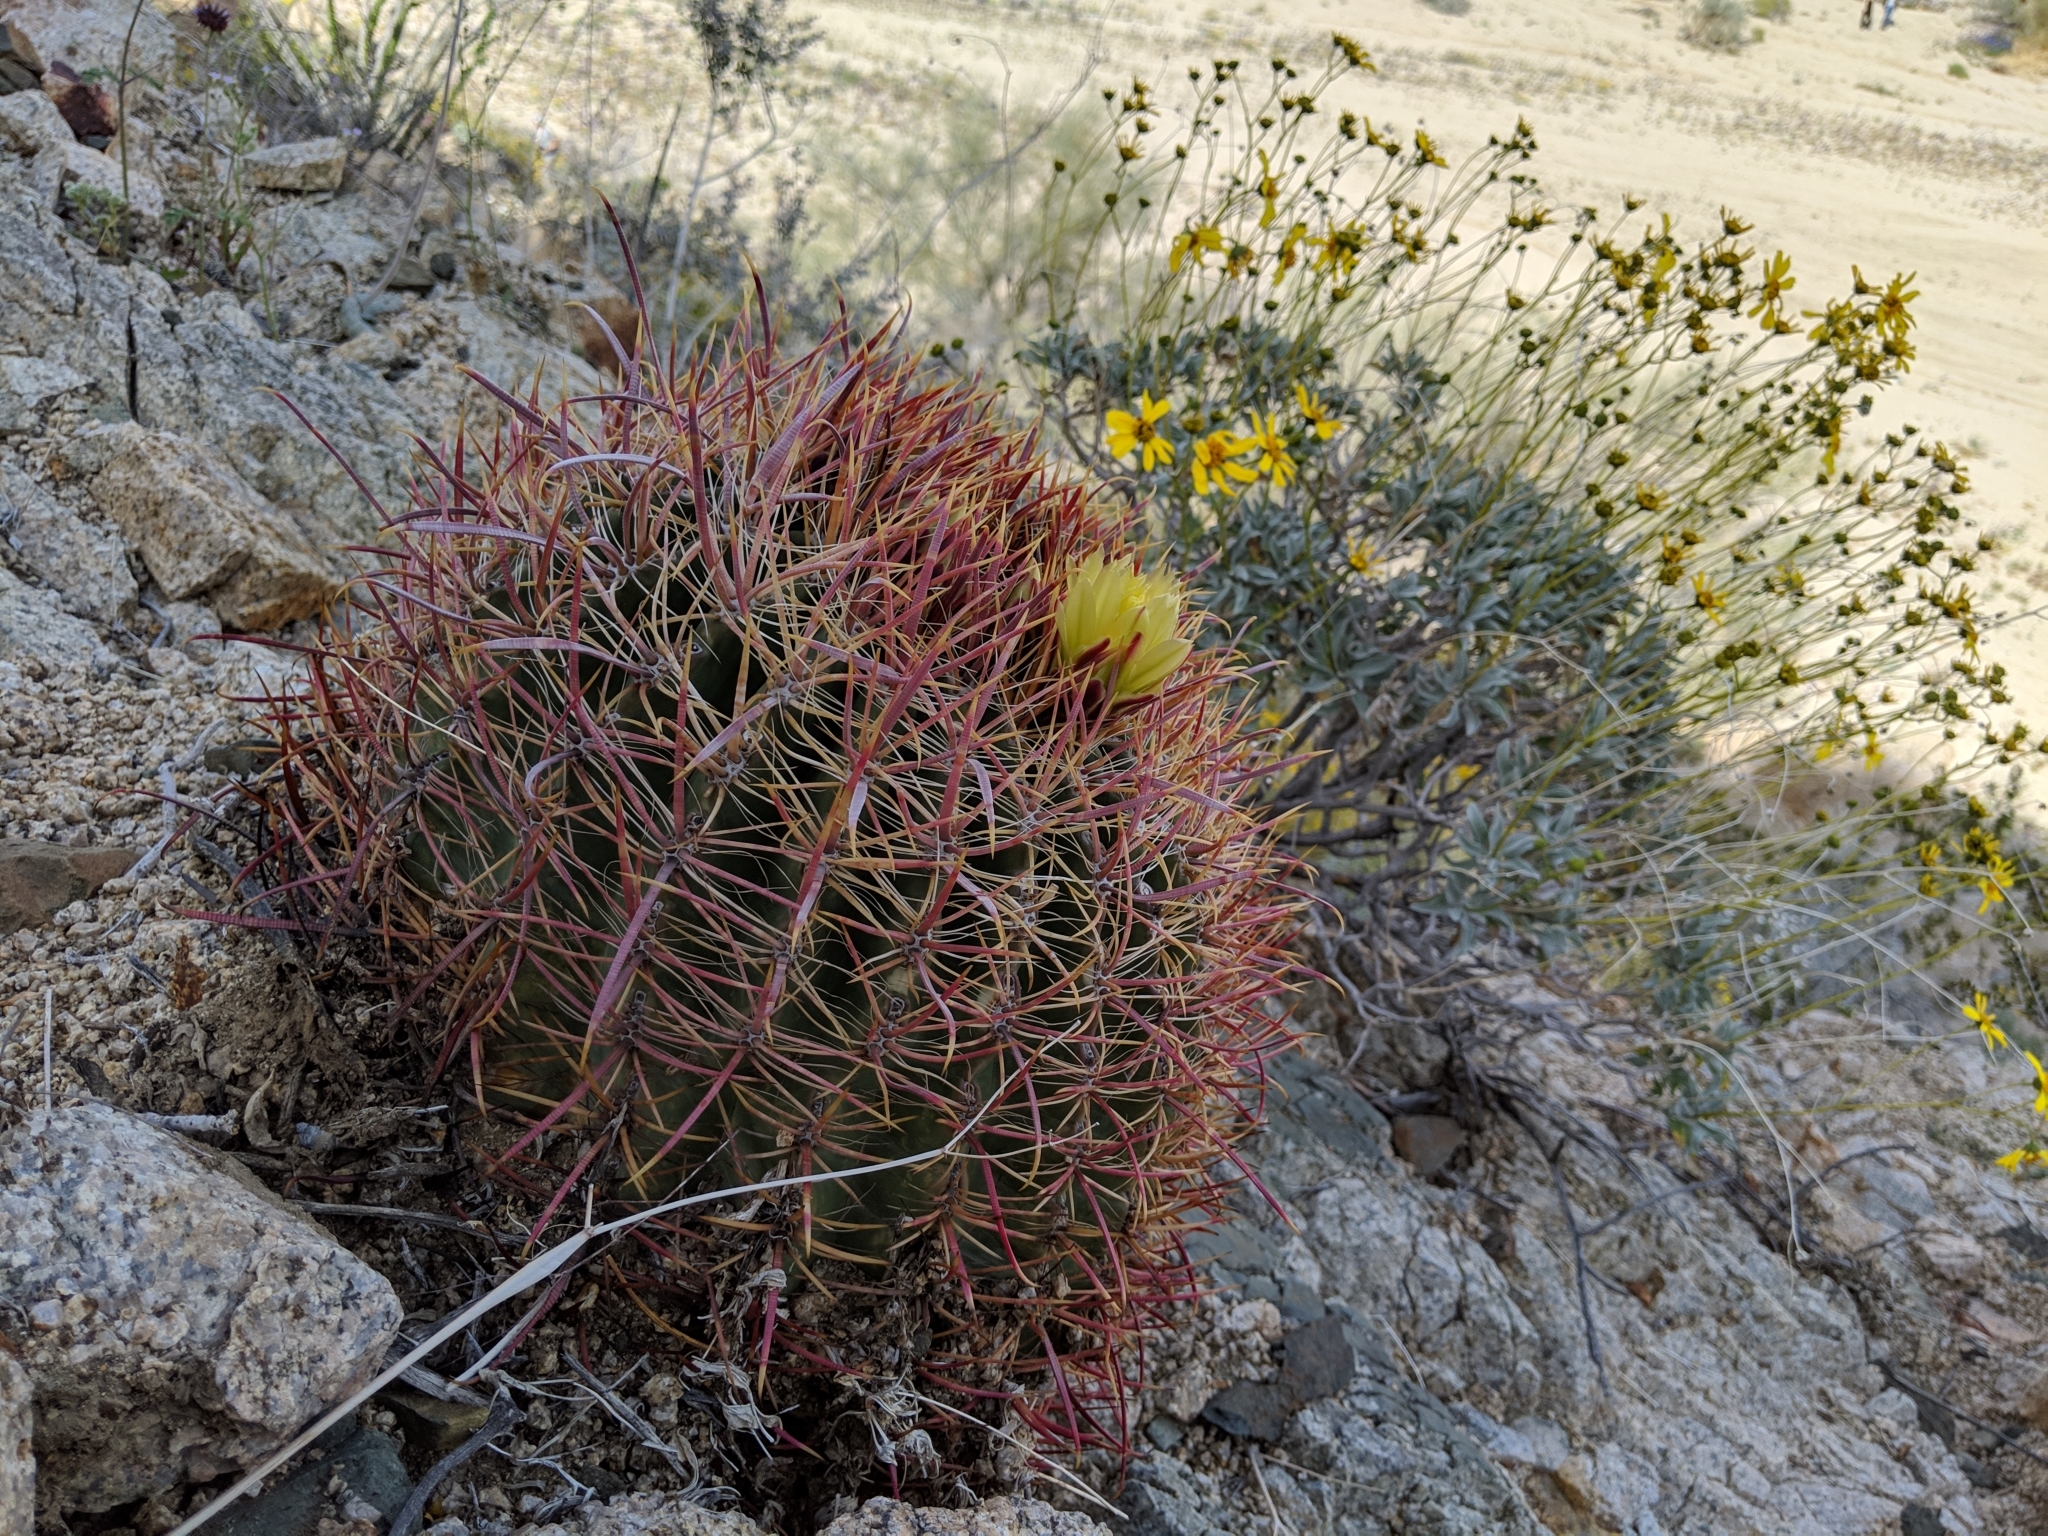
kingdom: Plantae
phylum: Tracheophyta
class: Magnoliopsida
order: Caryophyllales
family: Cactaceae
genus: Ferocactus
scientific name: Ferocactus cylindraceus
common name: California barrel cactus
